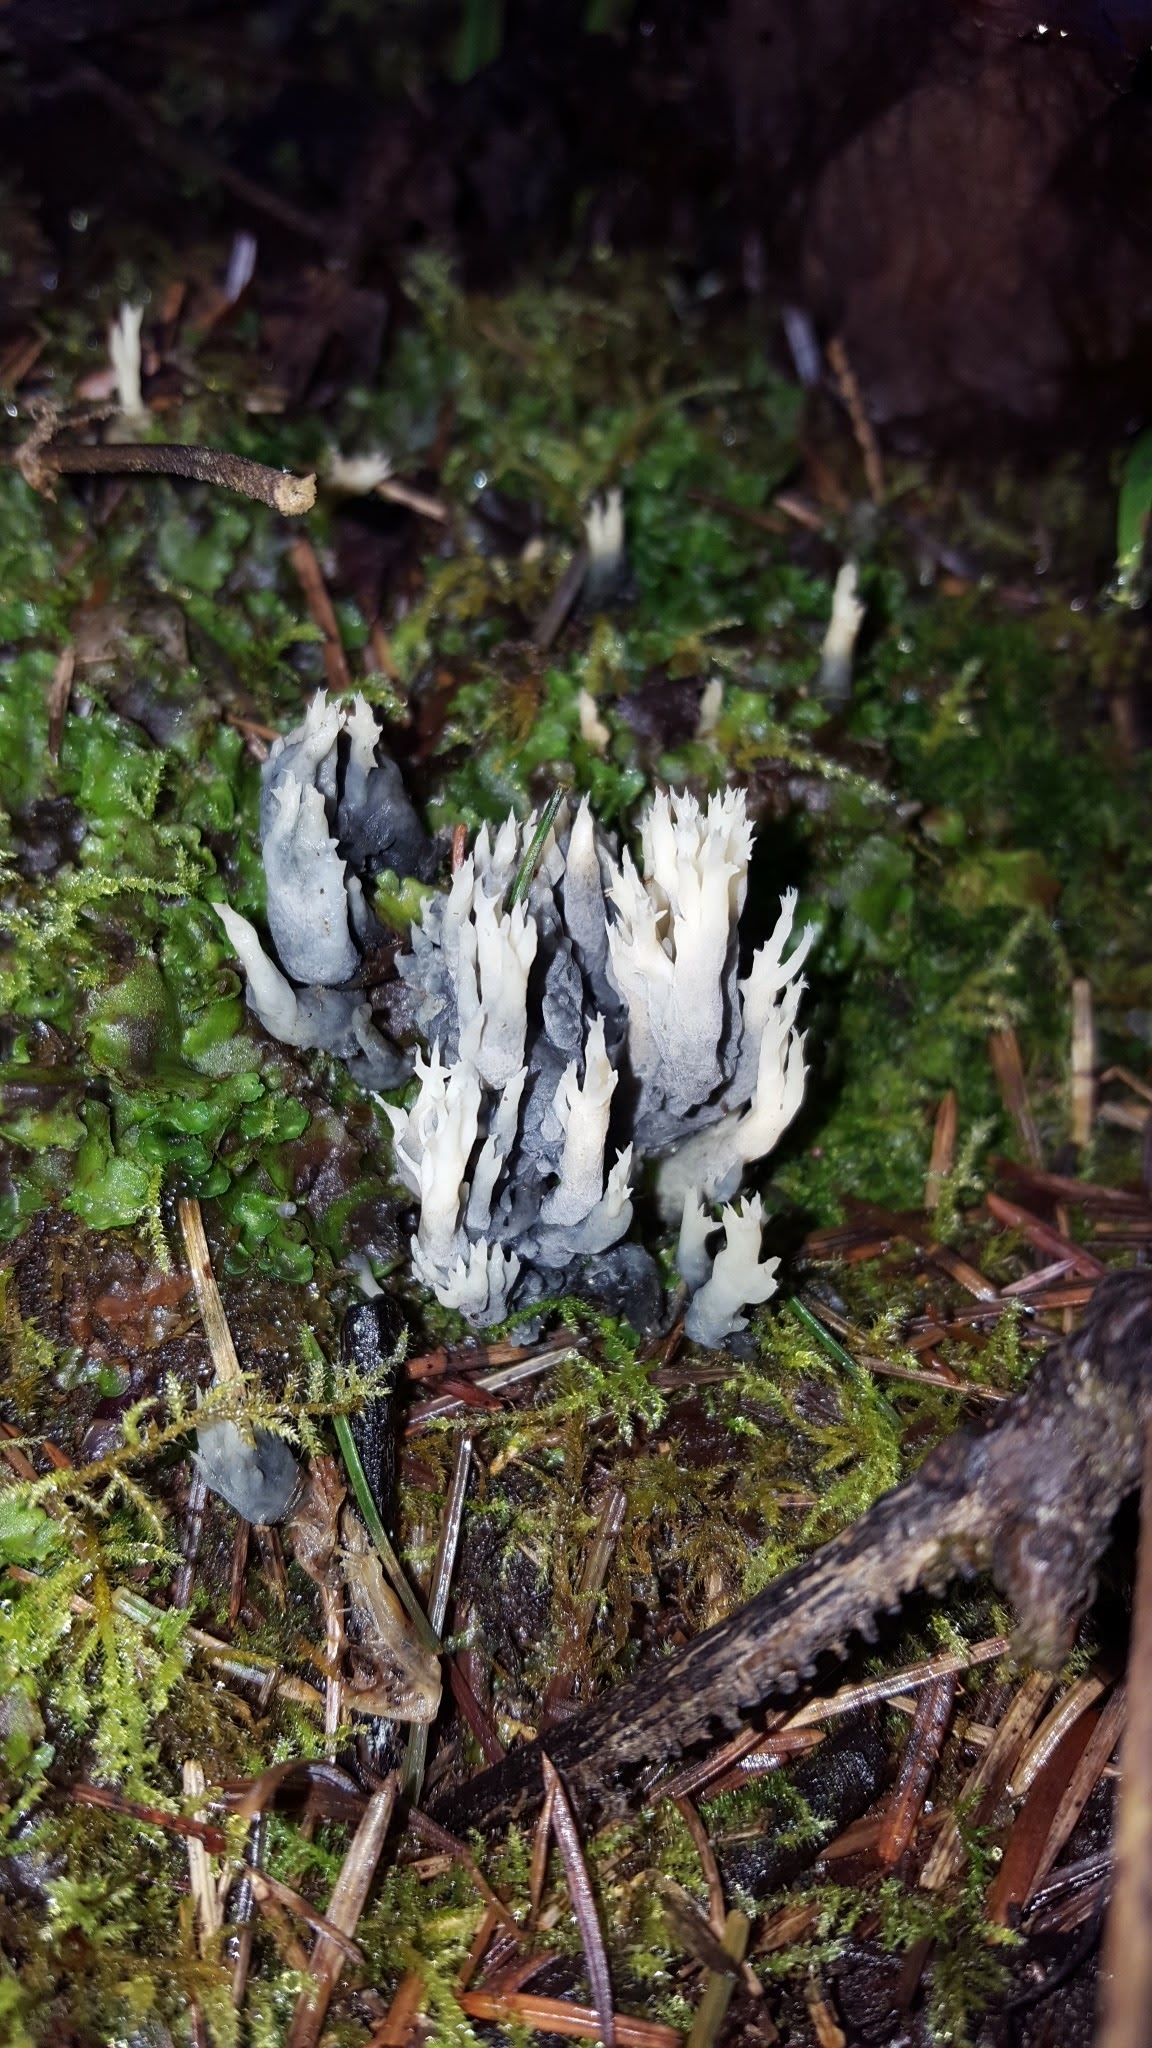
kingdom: Fungi
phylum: Basidiomycota
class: Agaricomycetes
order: Cantharellales
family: Hydnaceae
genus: Clavulina
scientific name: Clavulina coralloides
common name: Crested coral
